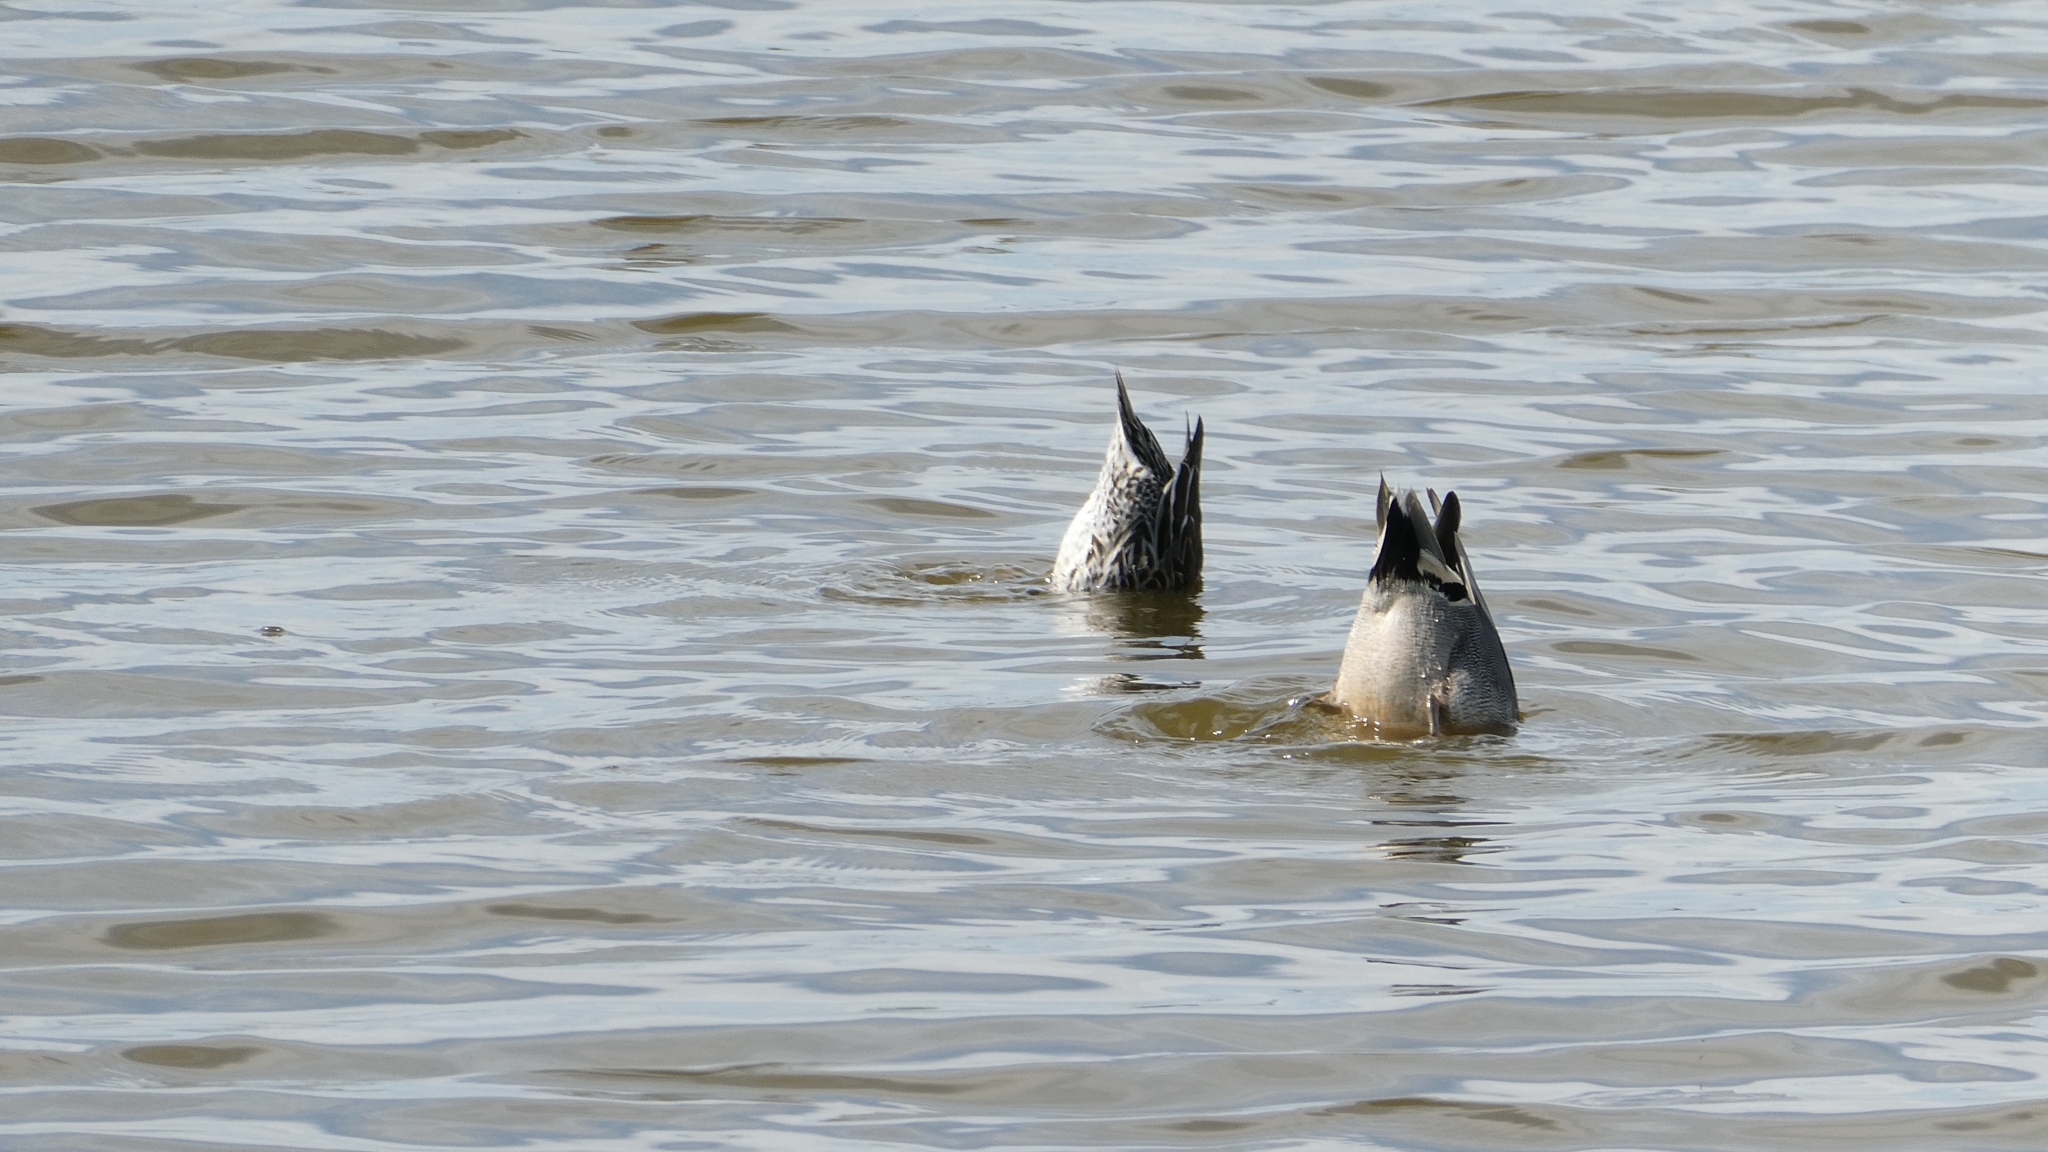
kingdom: Animalia
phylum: Chordata
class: Aves
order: Anseriformes
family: Anatidae
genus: Anas
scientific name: Anas crecca
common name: Eurasian teal
